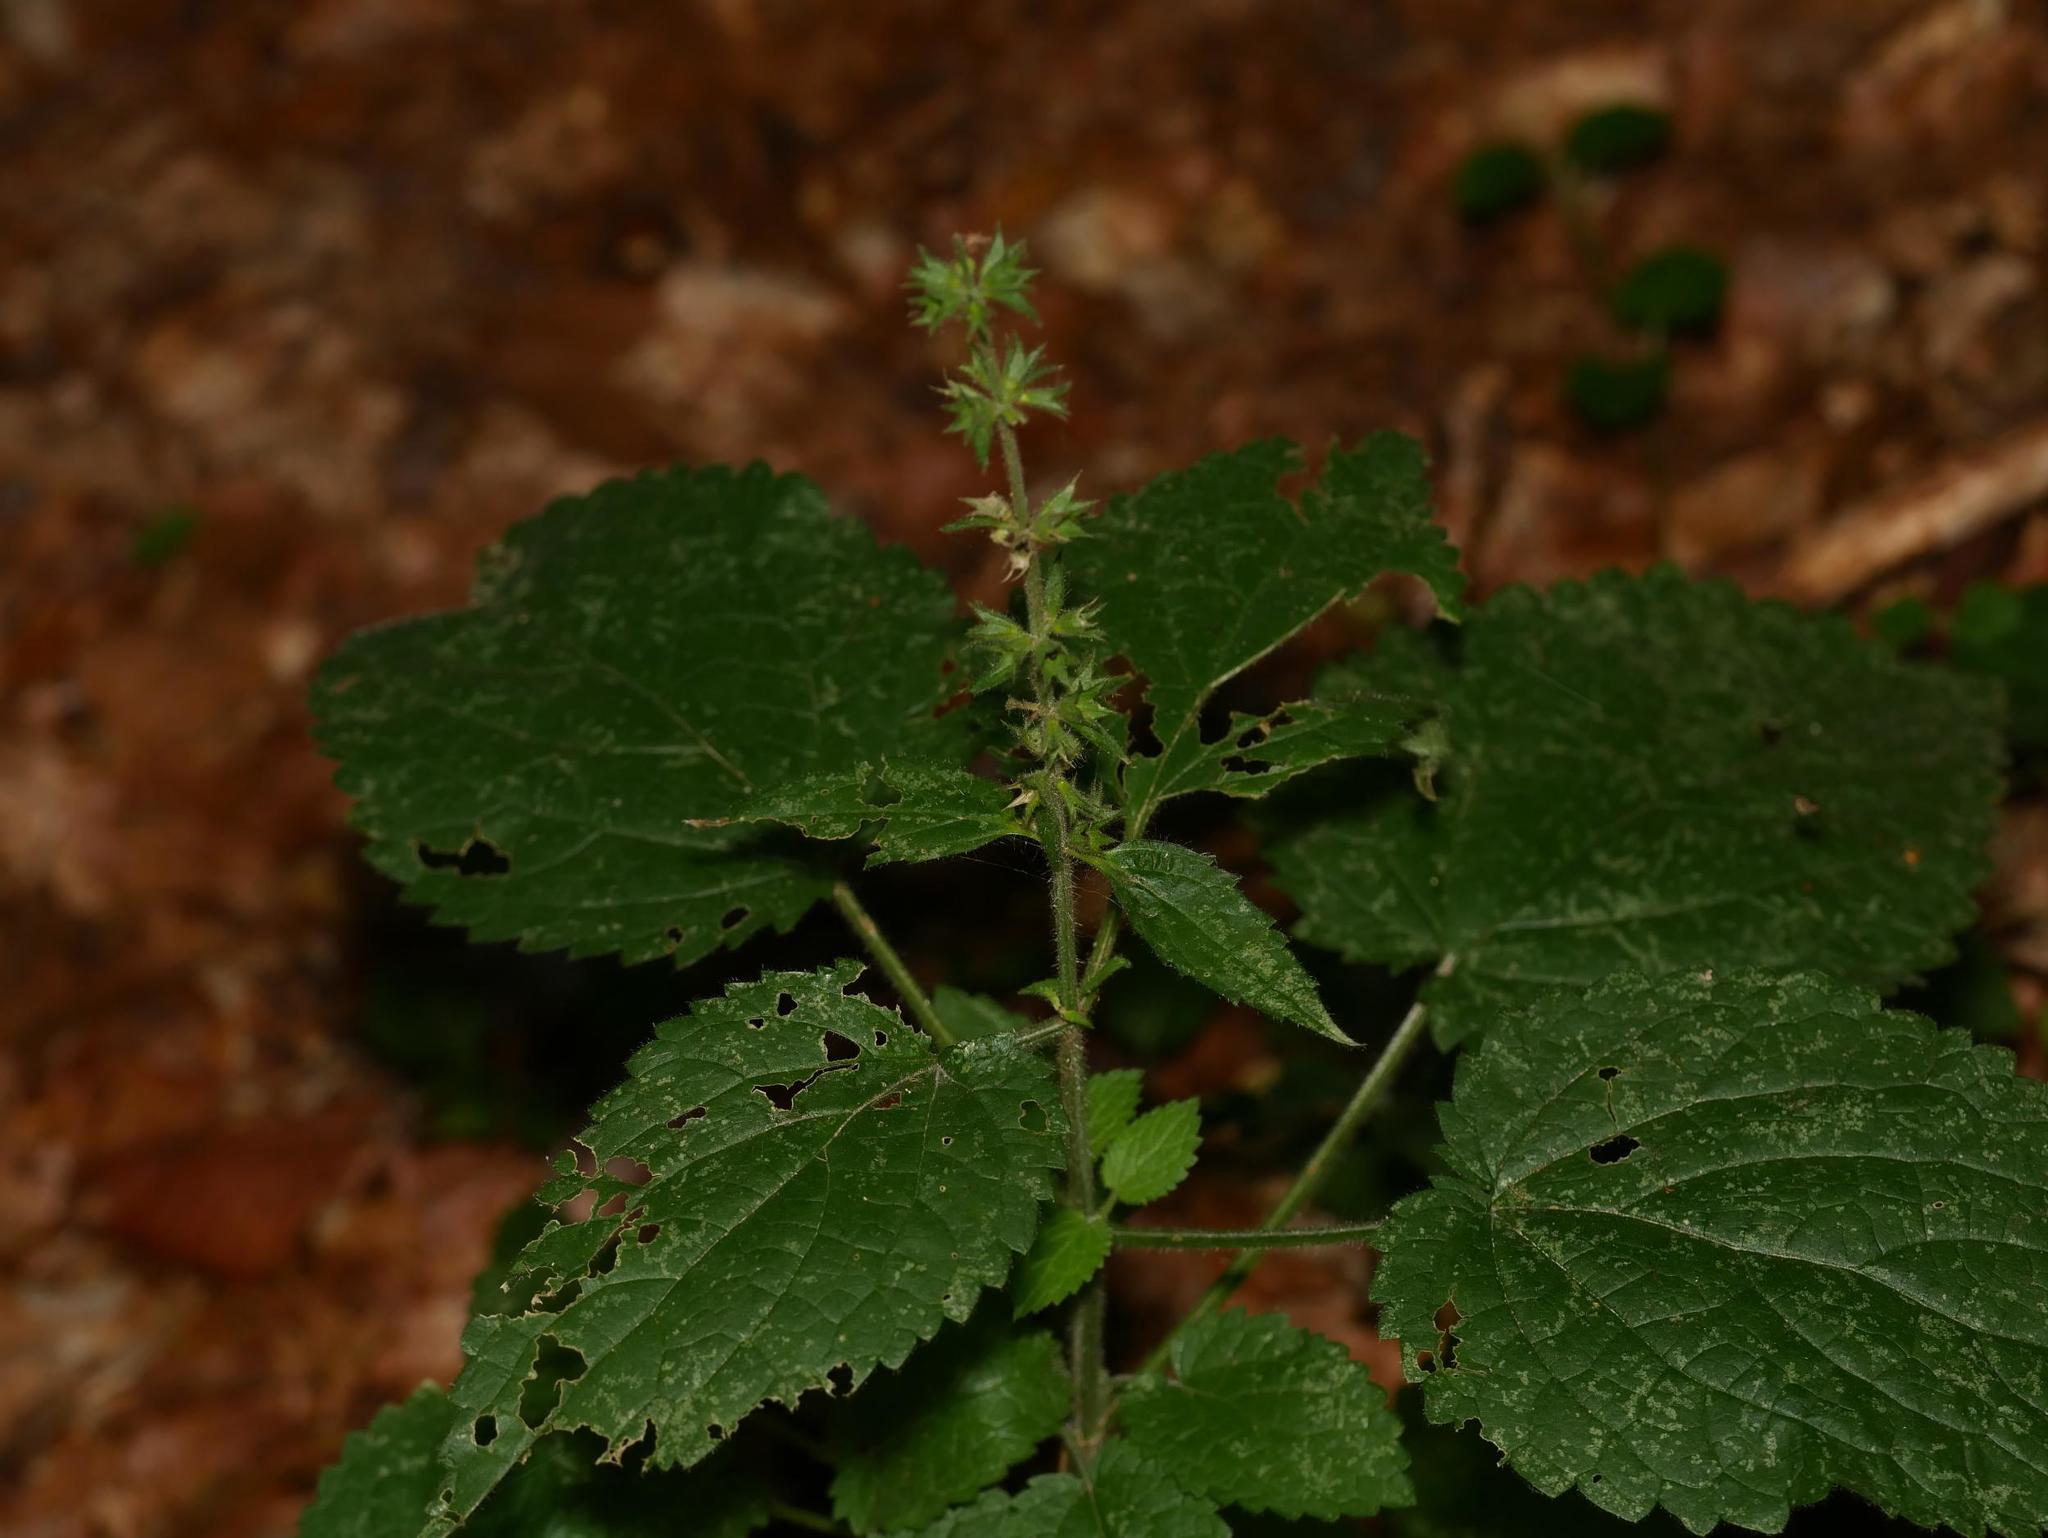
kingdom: Plantae
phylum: Tracheophyta
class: Magnoliopsida
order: Lamiales
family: Lamiaceae
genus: Stachys
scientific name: Stachys sylvatica
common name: Hedge woundwort
